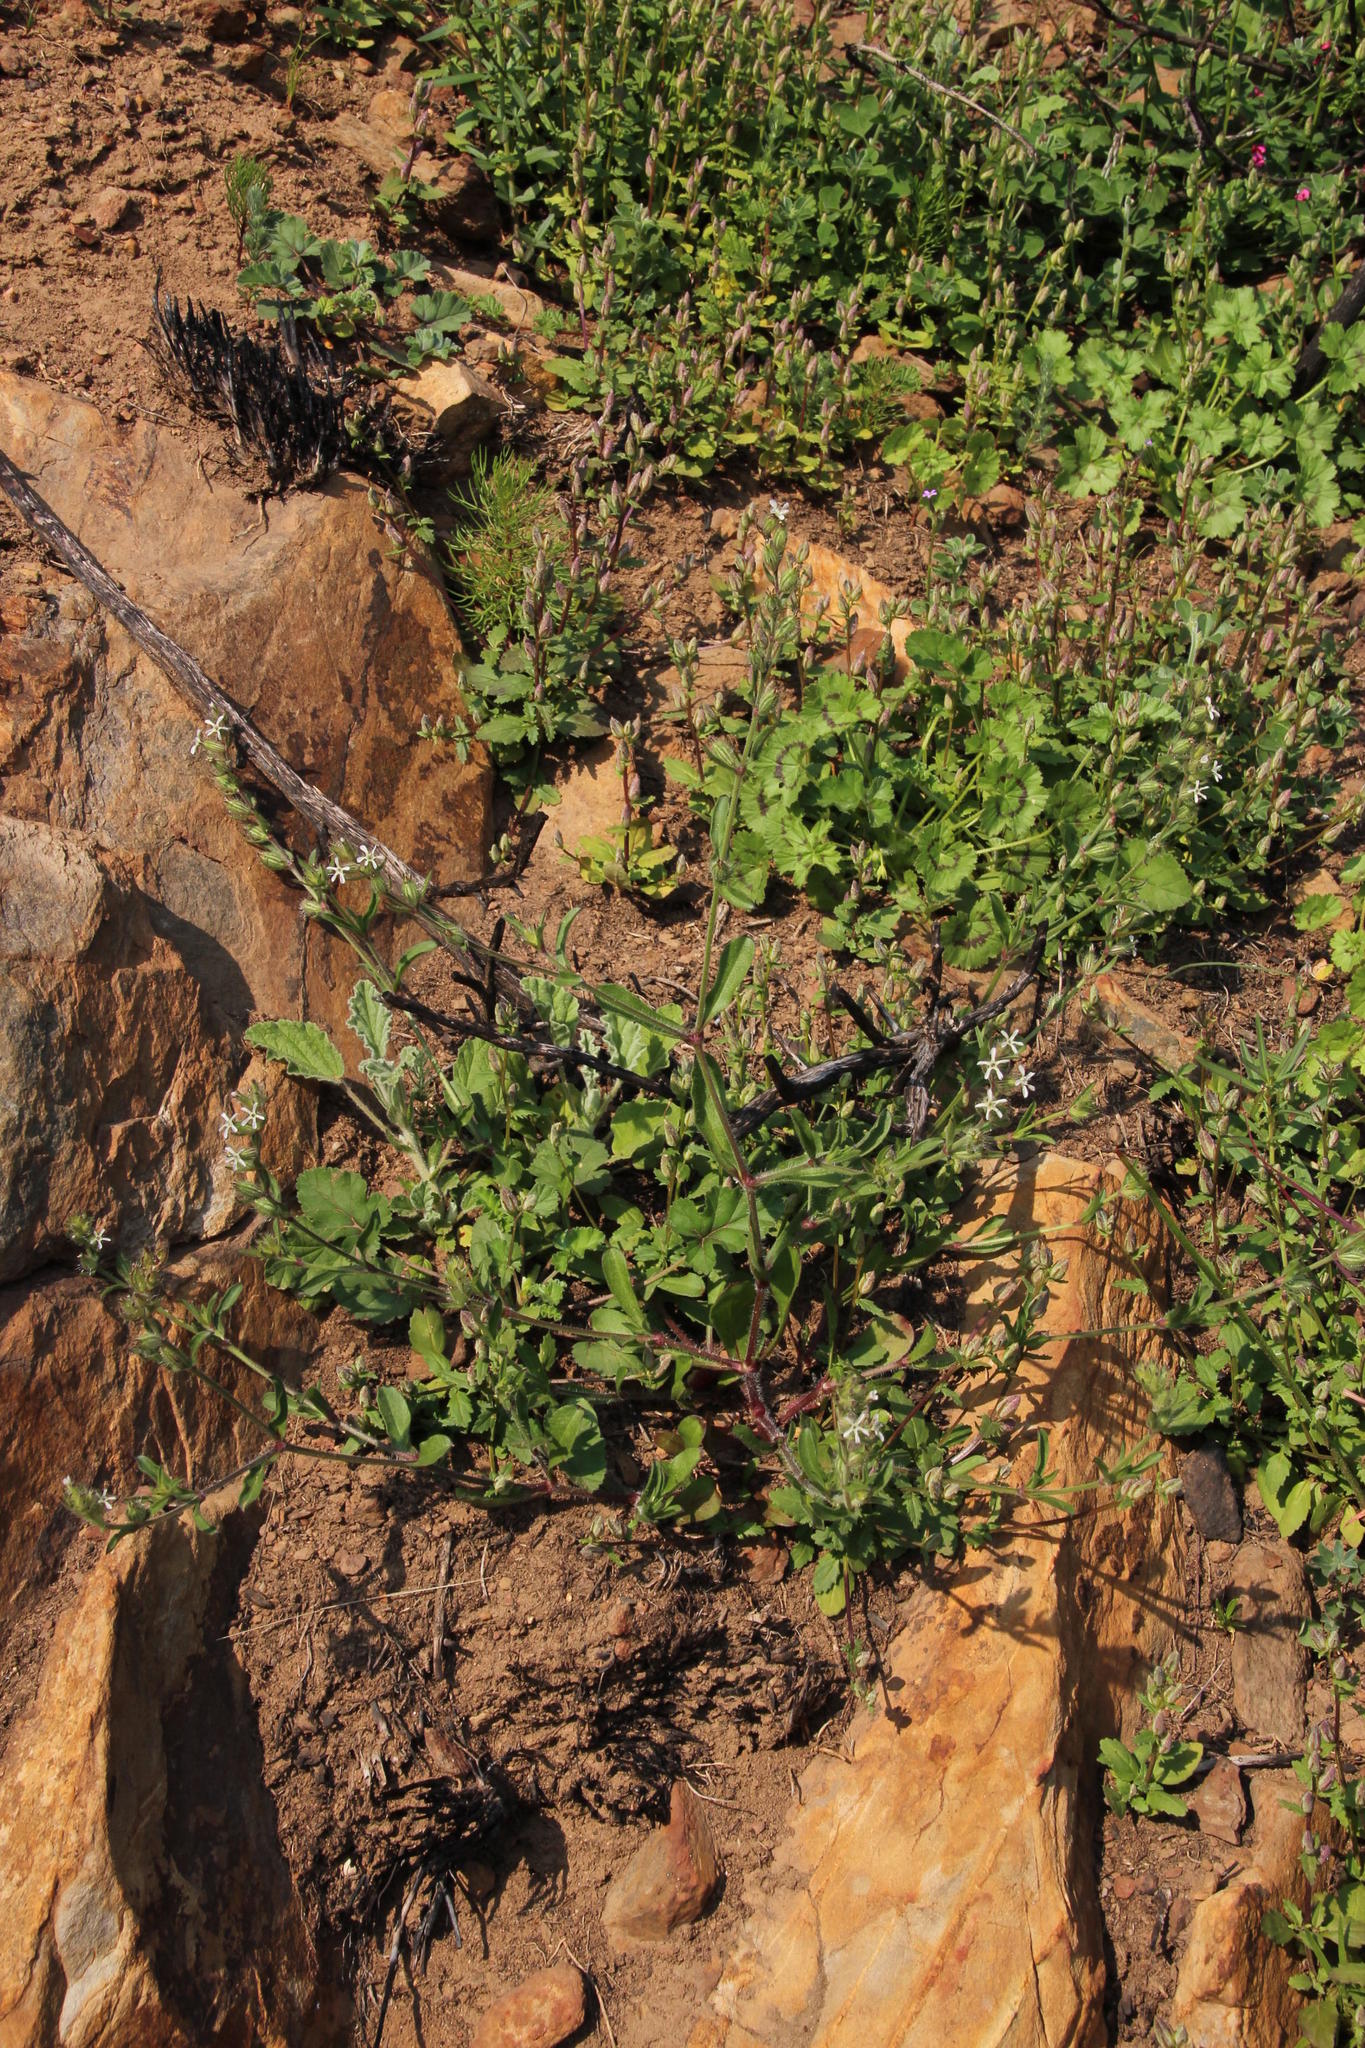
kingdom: Plantae
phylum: Tracheophyta
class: Magnoliopsida
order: Caryophyllales
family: Caryophyllaceae
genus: Silene
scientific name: Silene gallica
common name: Small-flowered catchfly
